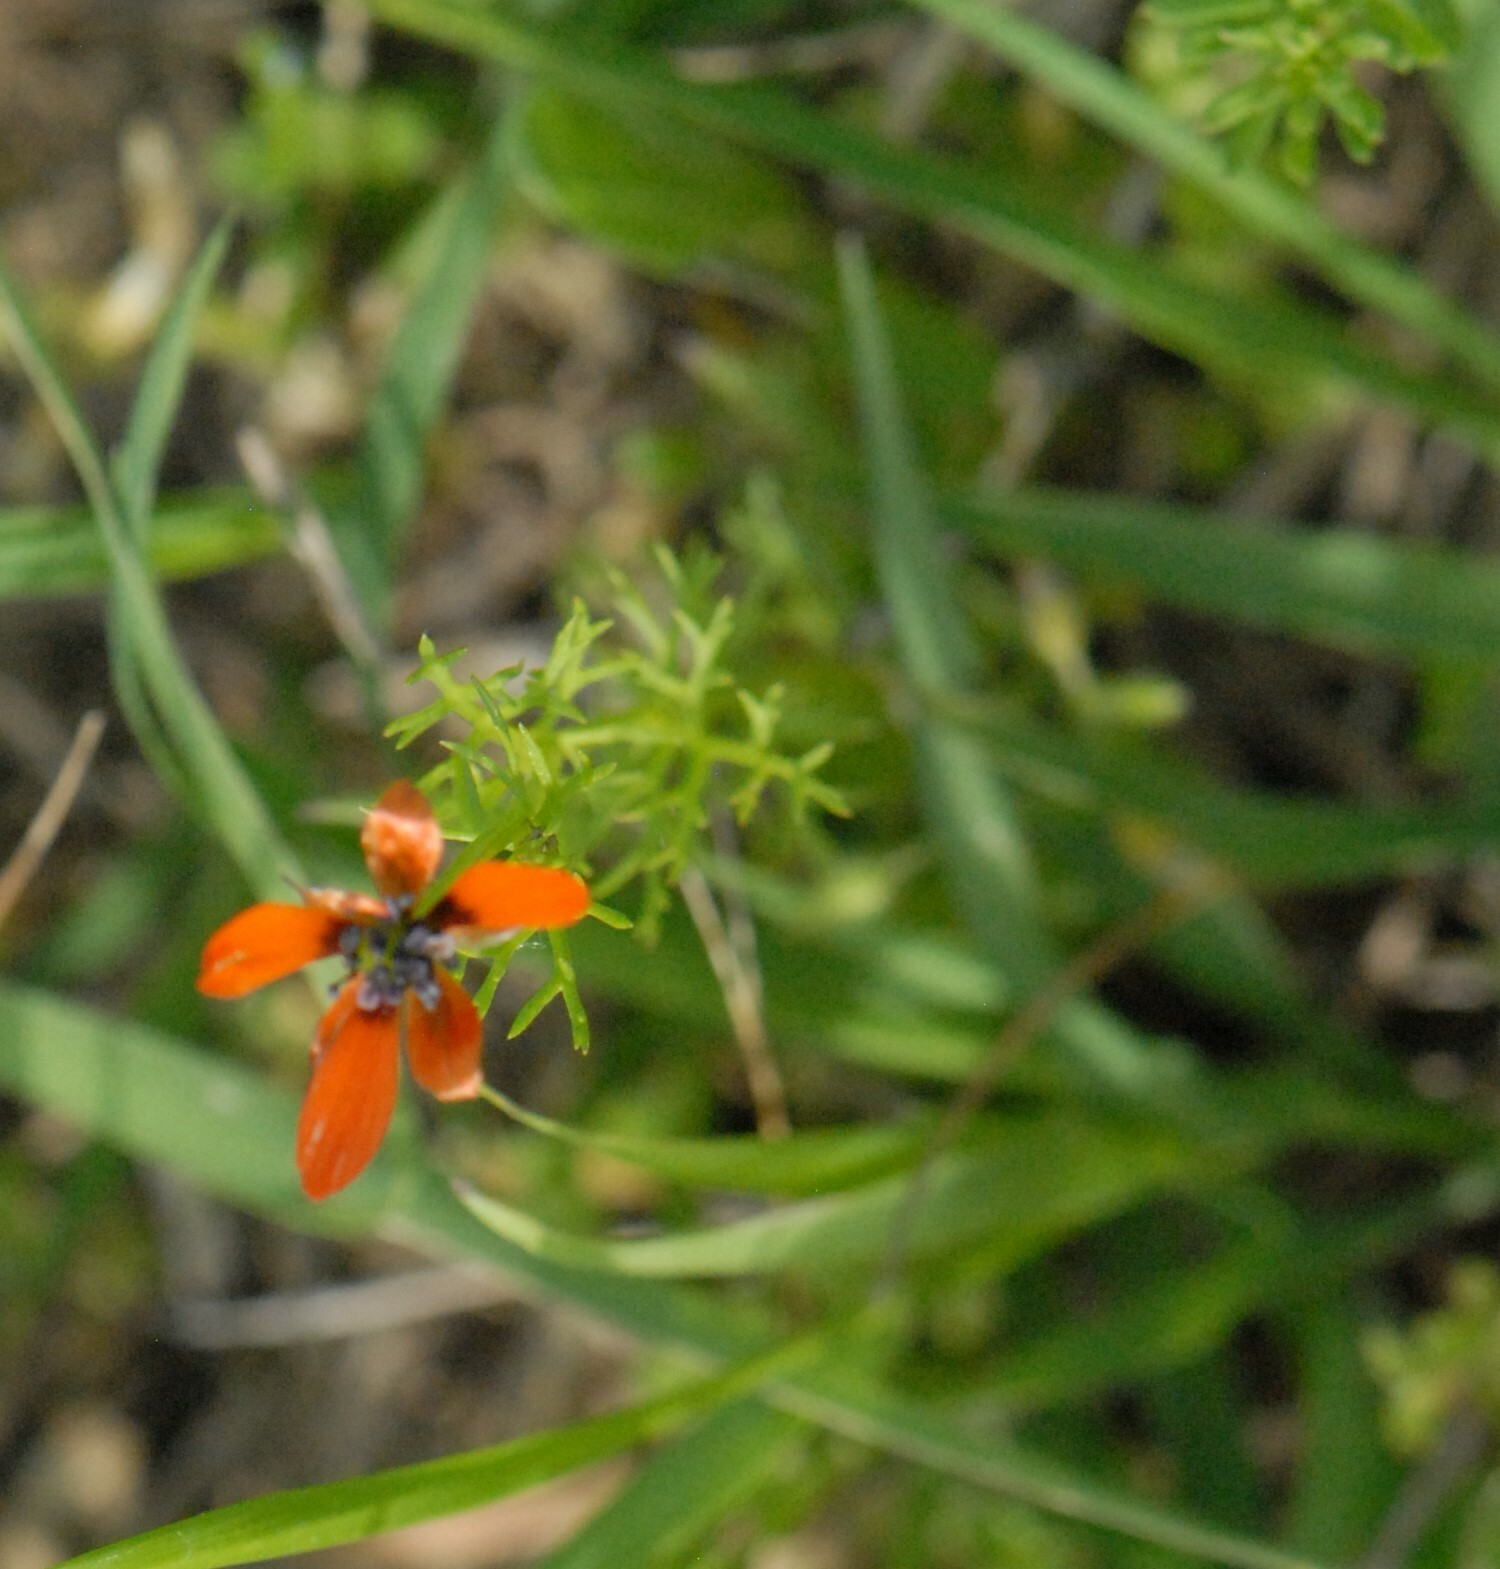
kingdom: Plantae
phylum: Tracheophyta
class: Magnoliopsida
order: Ranunculales
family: Ranunculaceae
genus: Adonis
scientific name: Adonis aestivalis
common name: Summer pheasant's-eye
